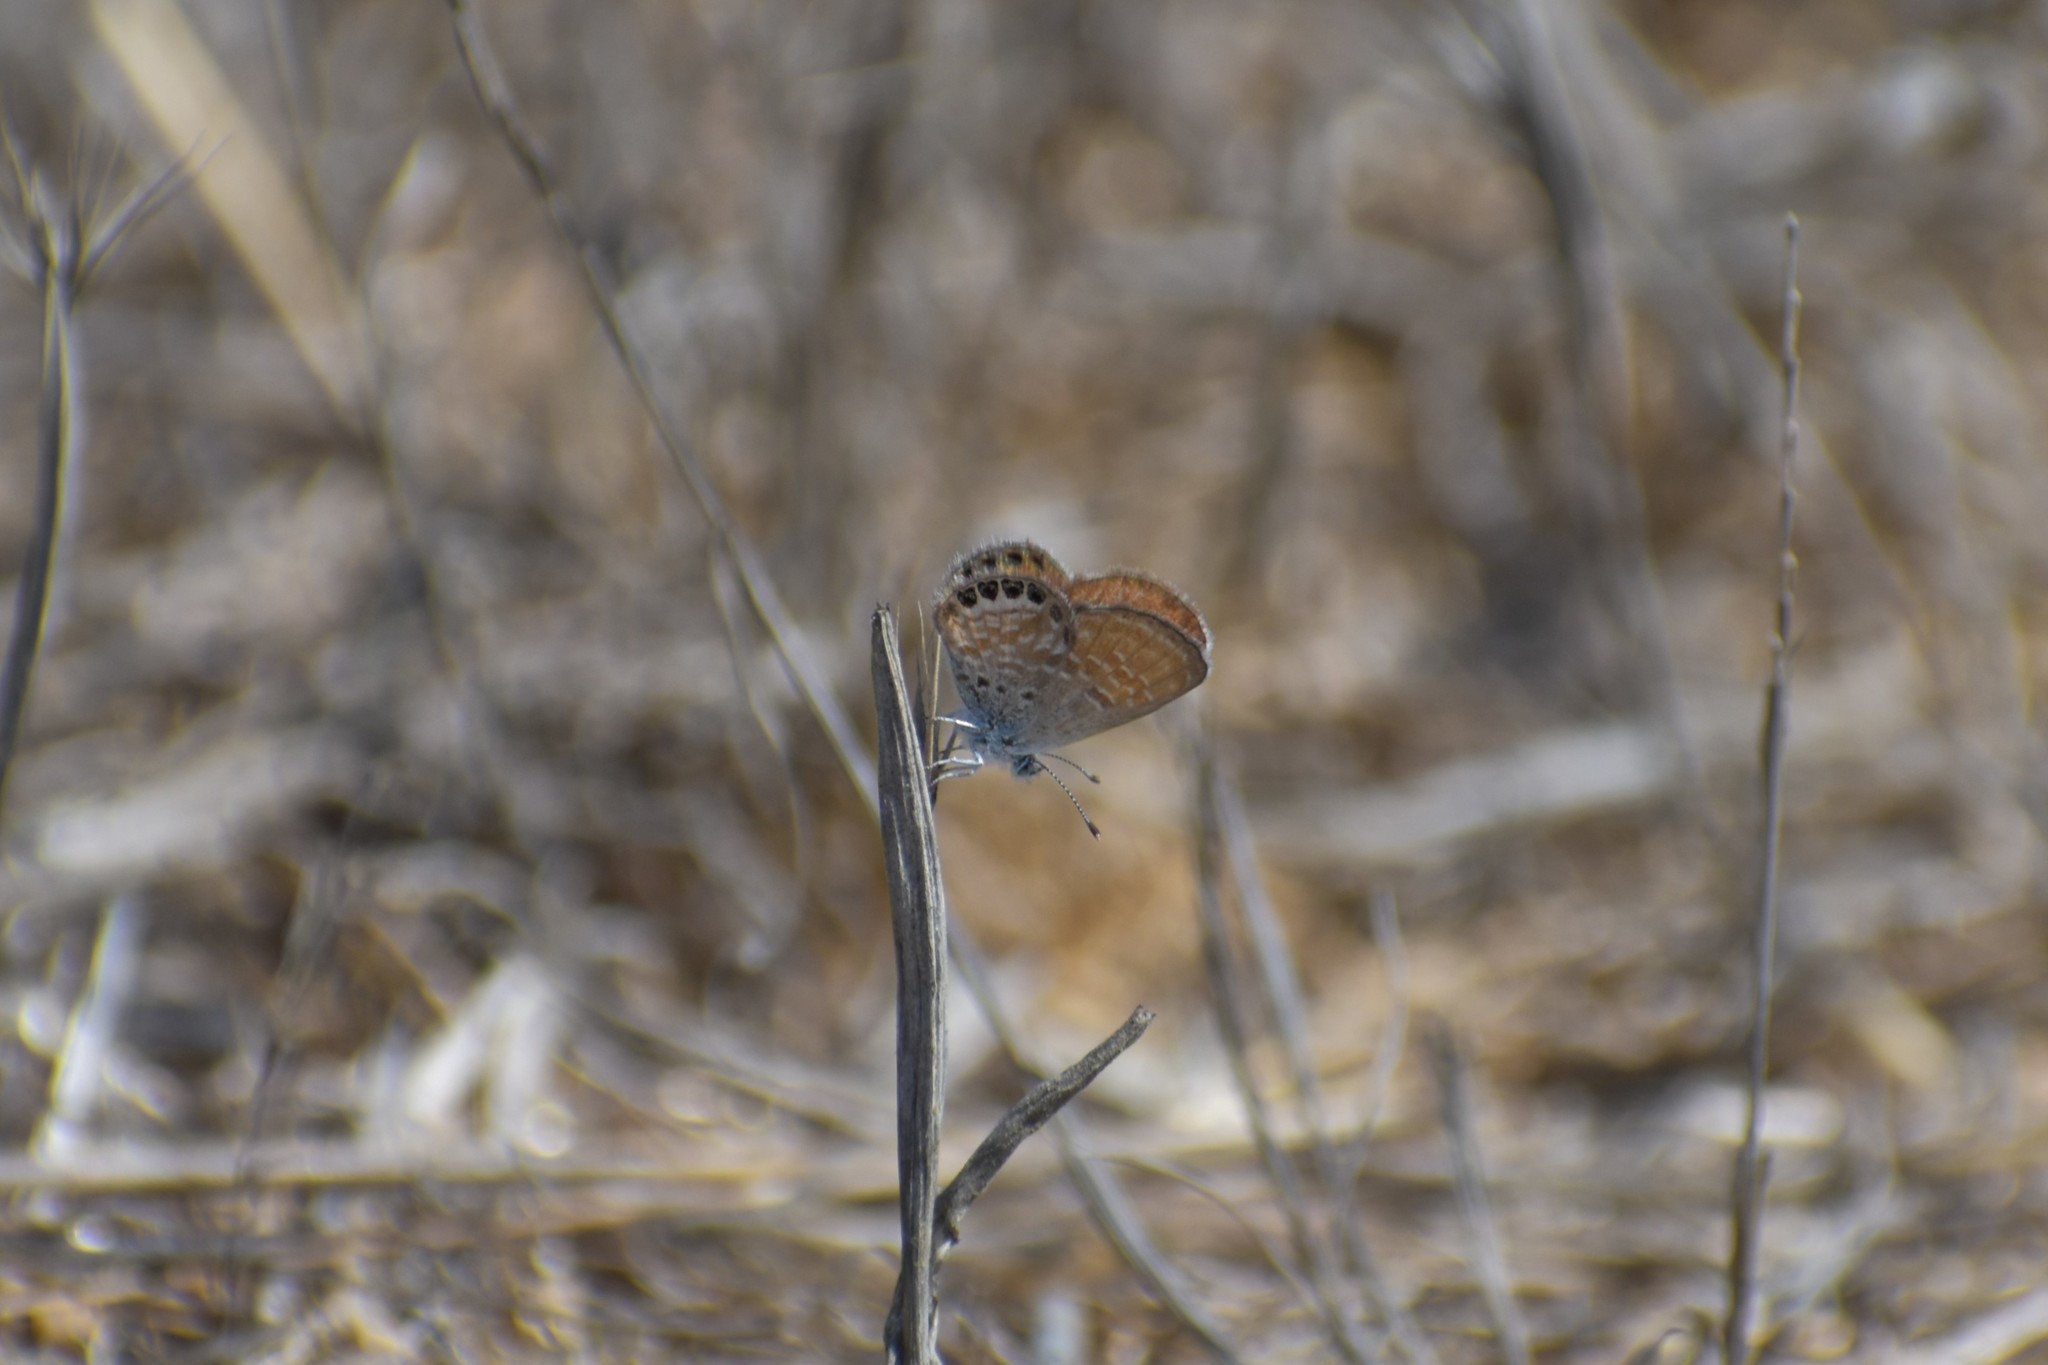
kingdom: Animalia
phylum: Arthropoda
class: Insecta
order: Lepidoptera
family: Lycaenidae
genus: Brephidium
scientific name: Brephidium exilis
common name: Pygmy blue
